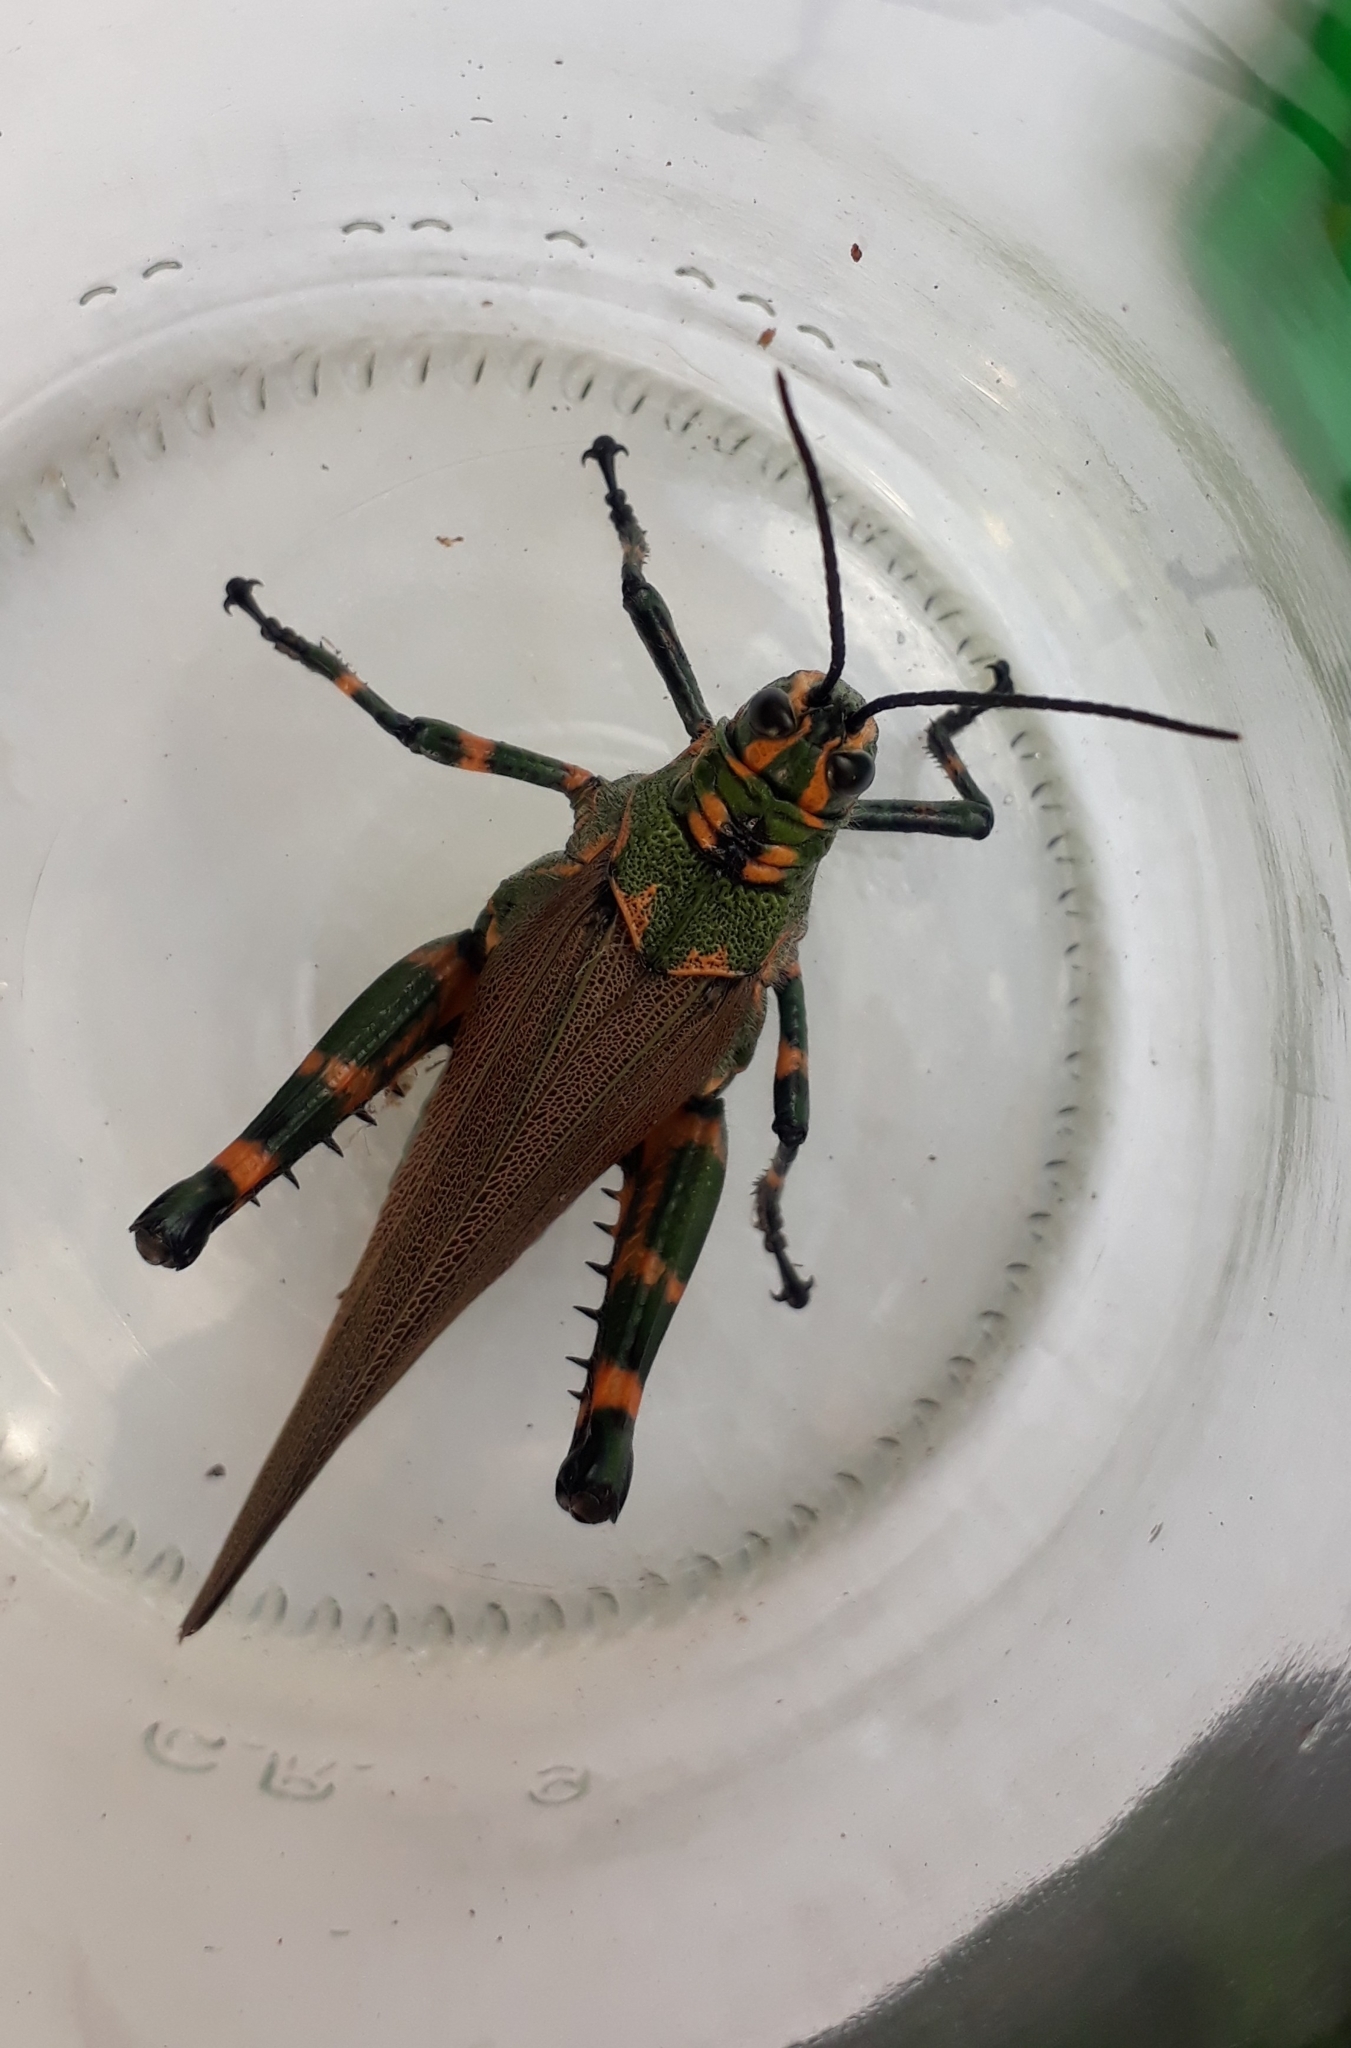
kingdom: Animalia
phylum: Arthropoda
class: Insecta
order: Orthoptera
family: Romaleidae
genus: Chromacris
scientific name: Chromacris speciosa
